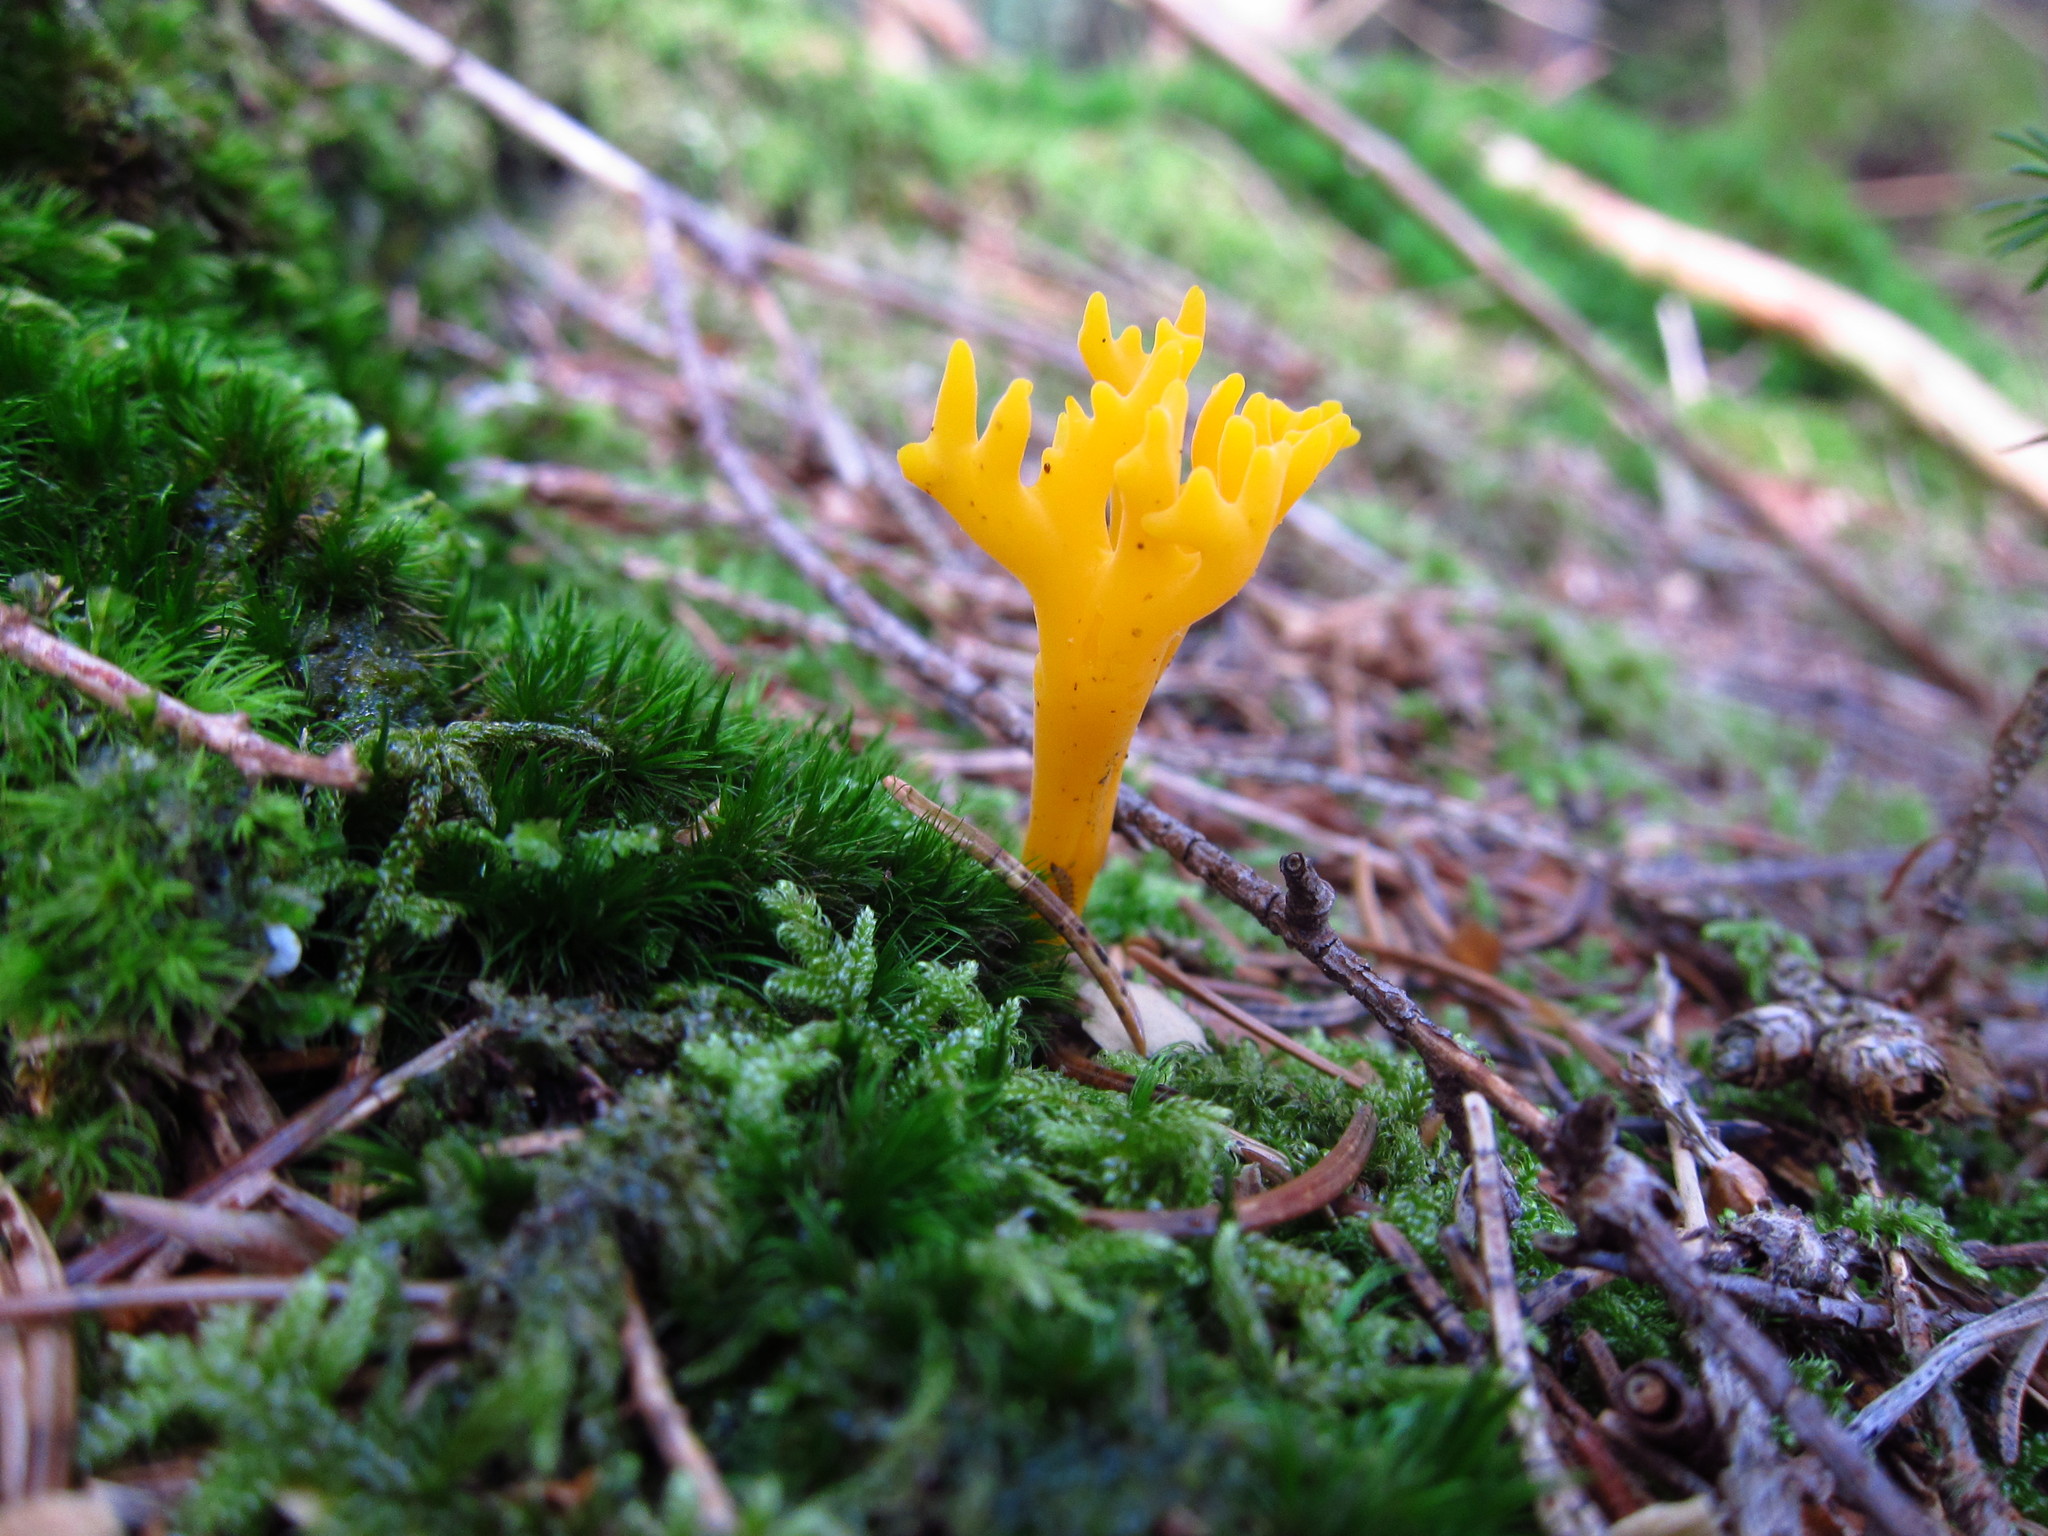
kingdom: Fungi
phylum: Basidiomycota
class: Dacrymycetes
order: Dacrymycetales
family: Dacrymycetaceae
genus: Calocera
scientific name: Calocera viscosa
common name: Yellow stagshorn
